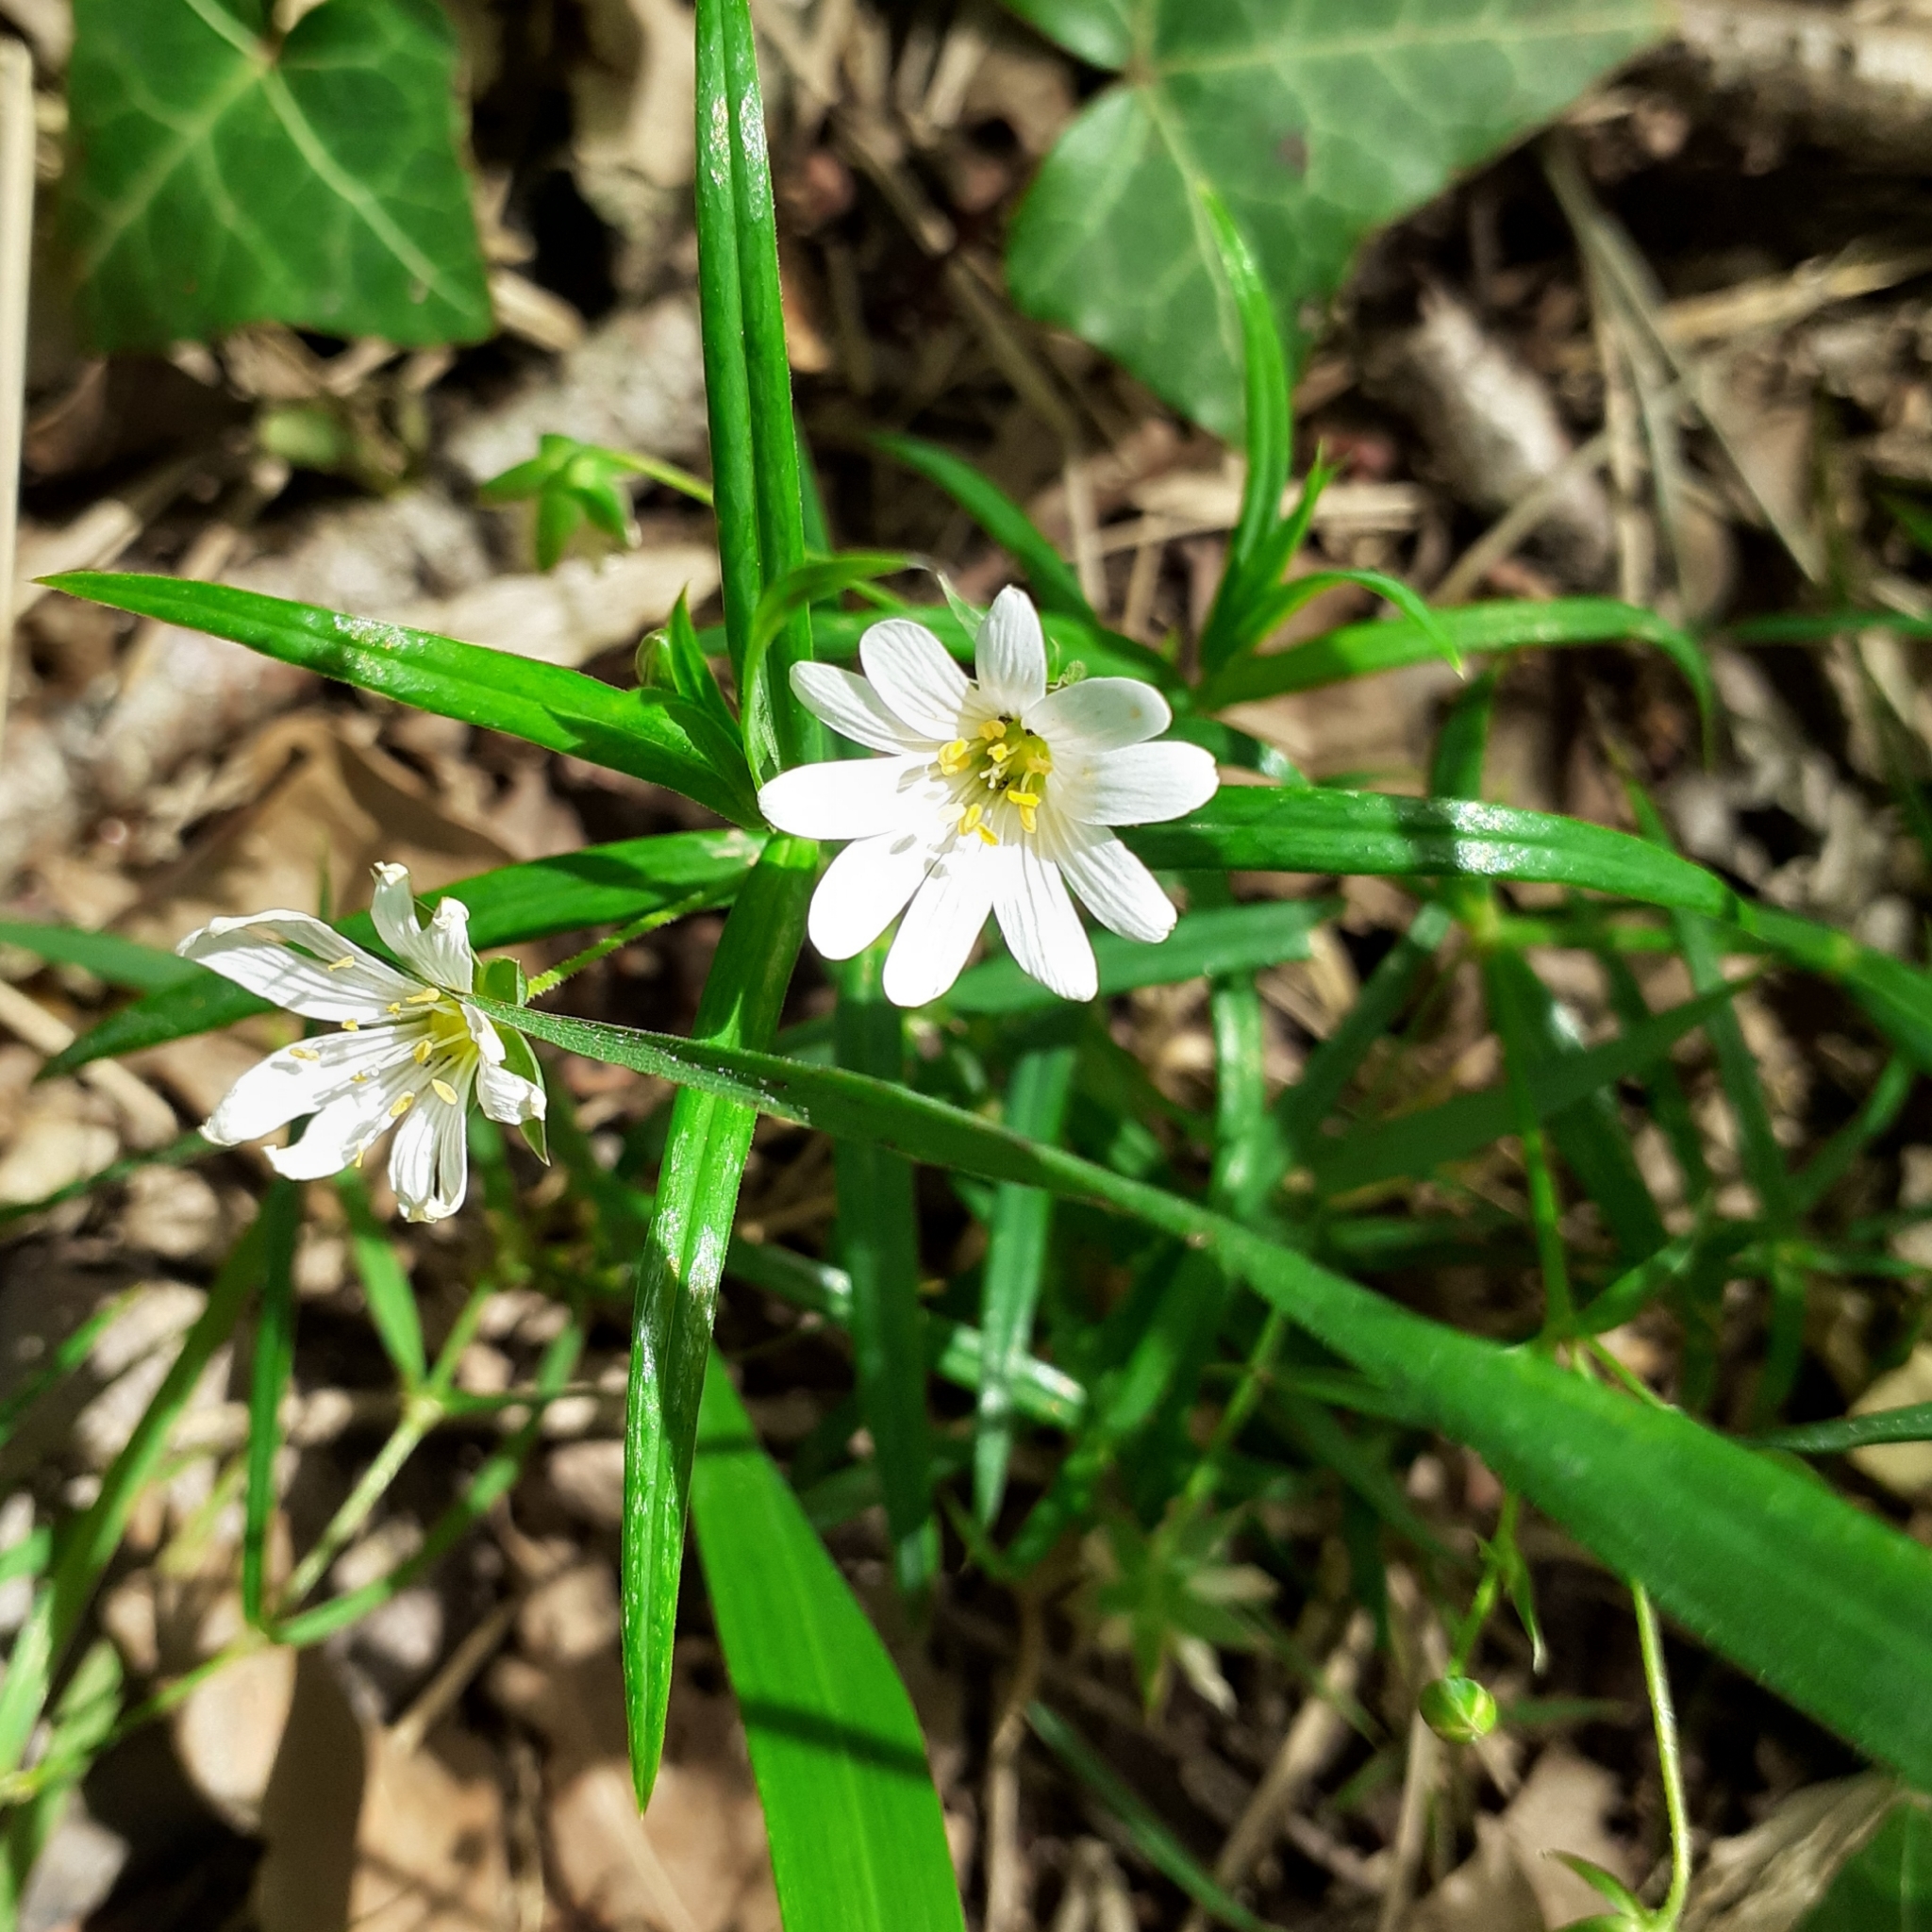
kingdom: Plantae
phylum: Tracheophyta
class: Magnoliopsida
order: Caryophyllales
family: Caryophyllaceae
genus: Rabelera
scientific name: Rabelera holostea
